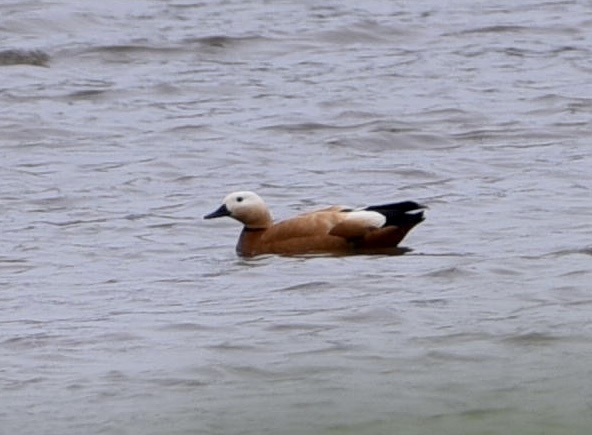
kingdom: Animalia
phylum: Chordata
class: Aves
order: Anseriformes
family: Anatidae
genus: Tadorna
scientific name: Tadorna ferruginea
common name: Ruddy shelduck
